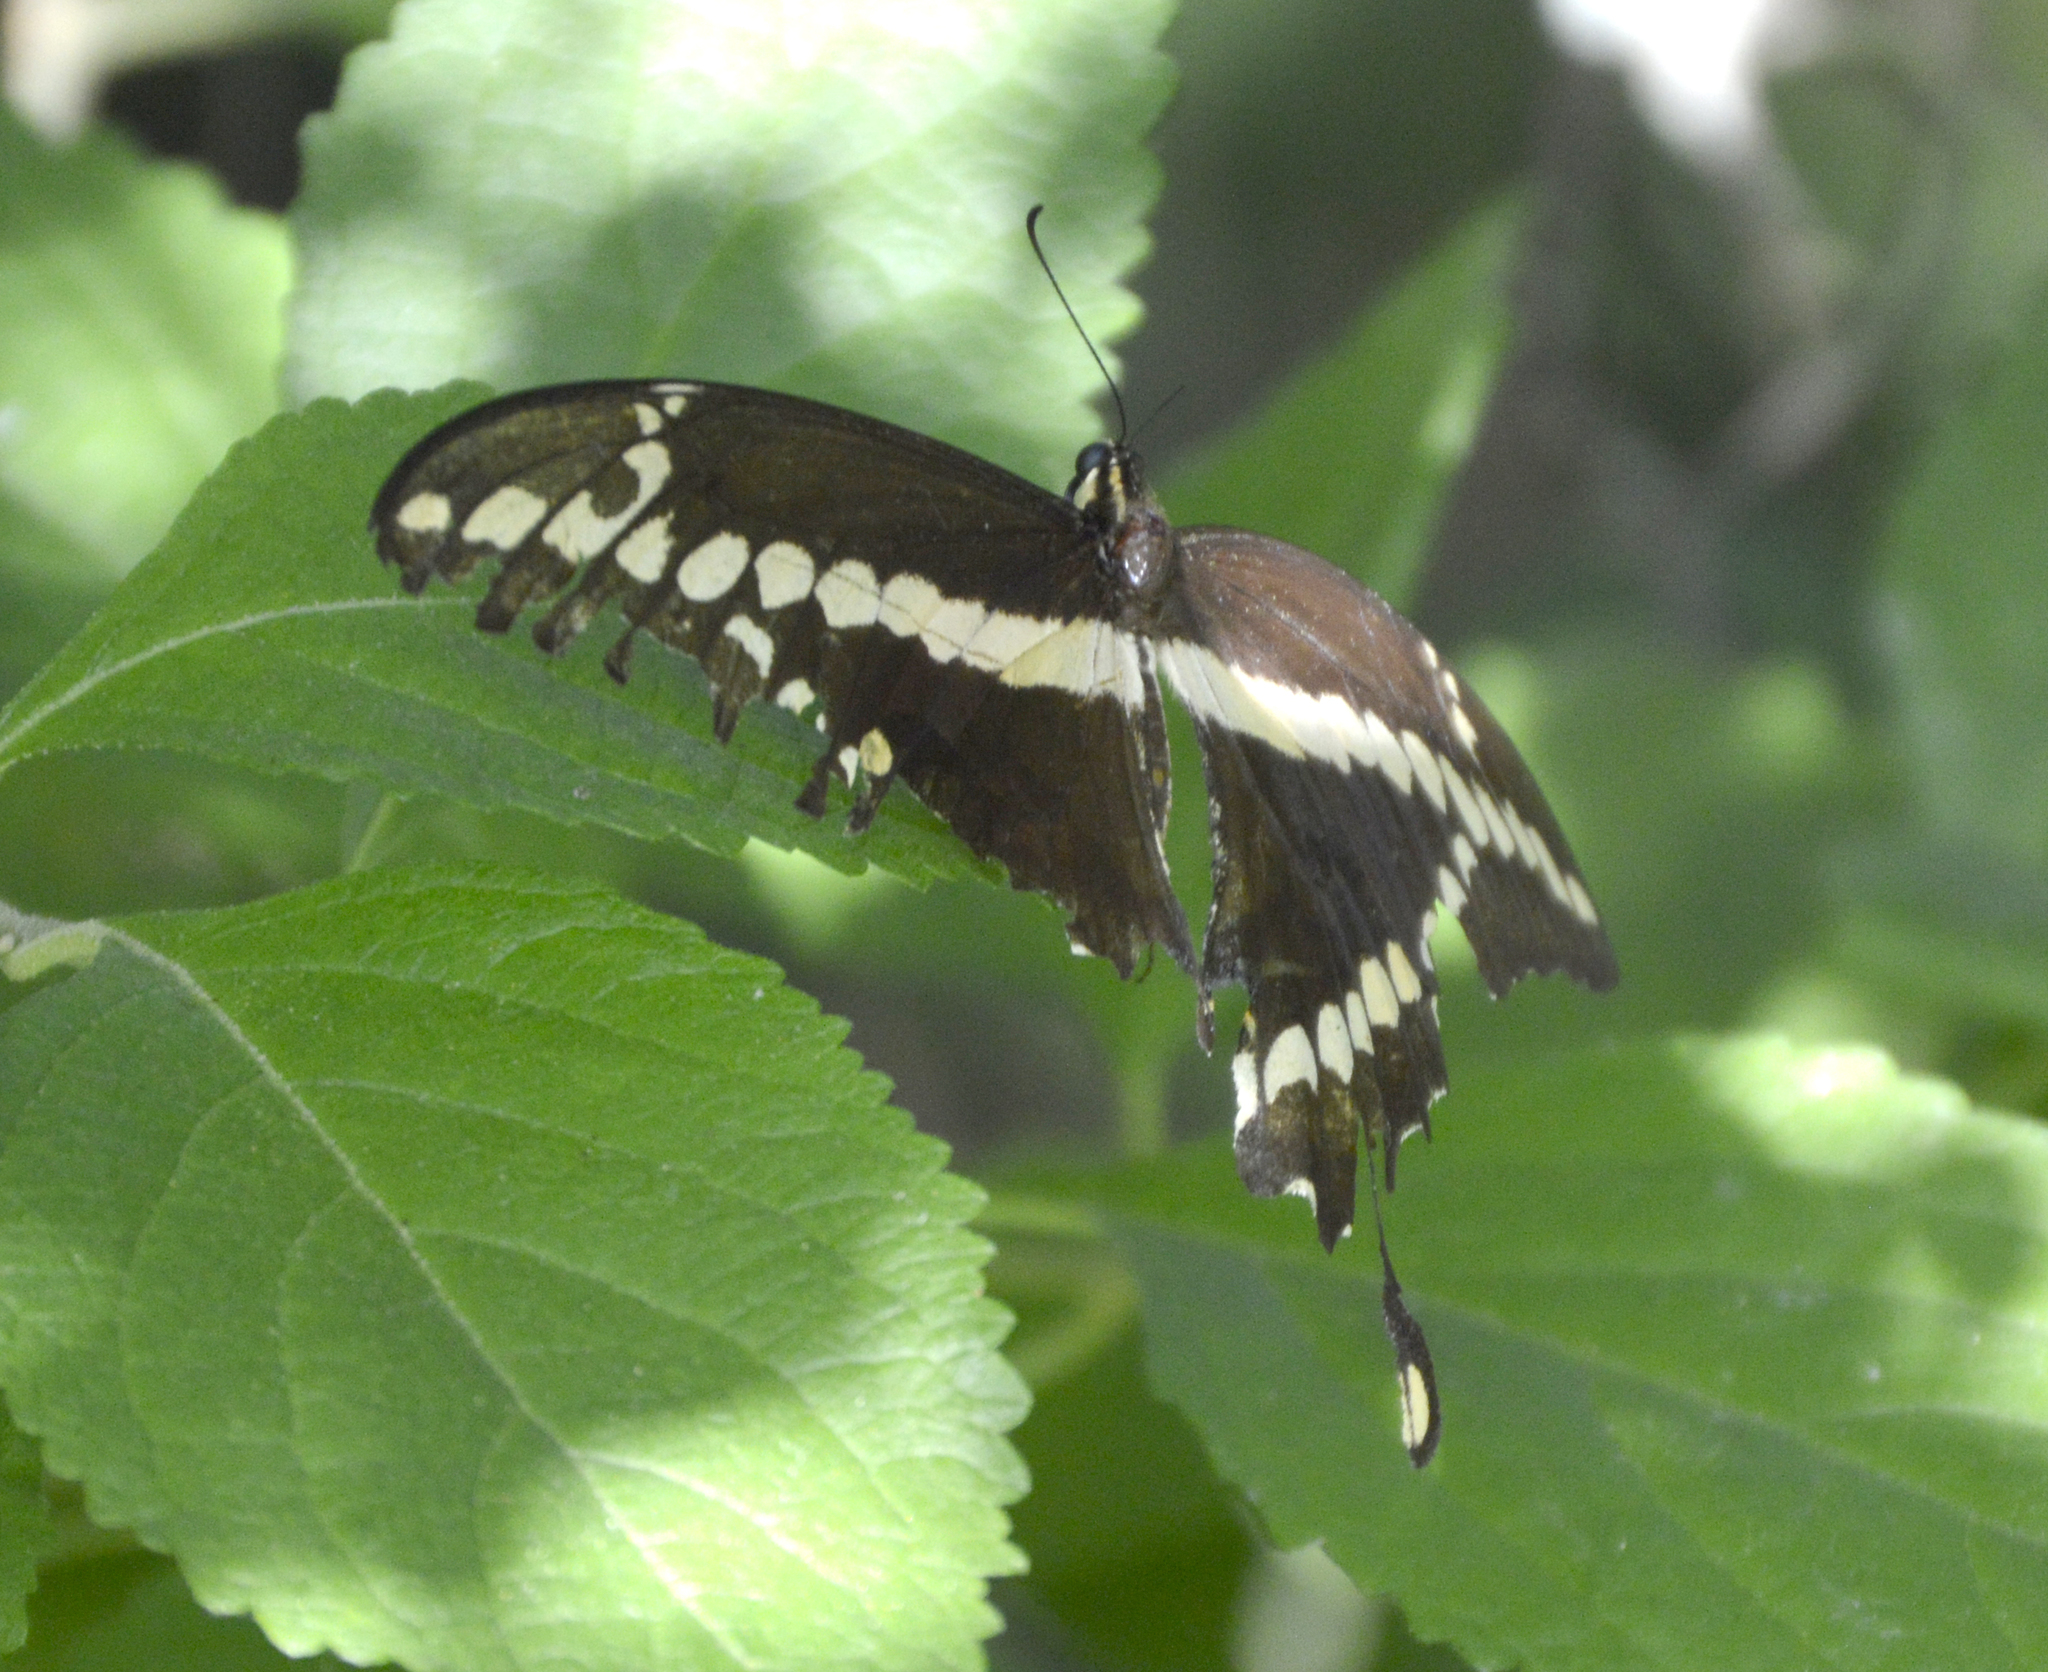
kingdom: Animalia
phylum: Arthropoda
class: Insecta
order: Lepidoptera
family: Papilionidae
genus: Papilio
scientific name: Papilio rumiko
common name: Western giant swallowtail
